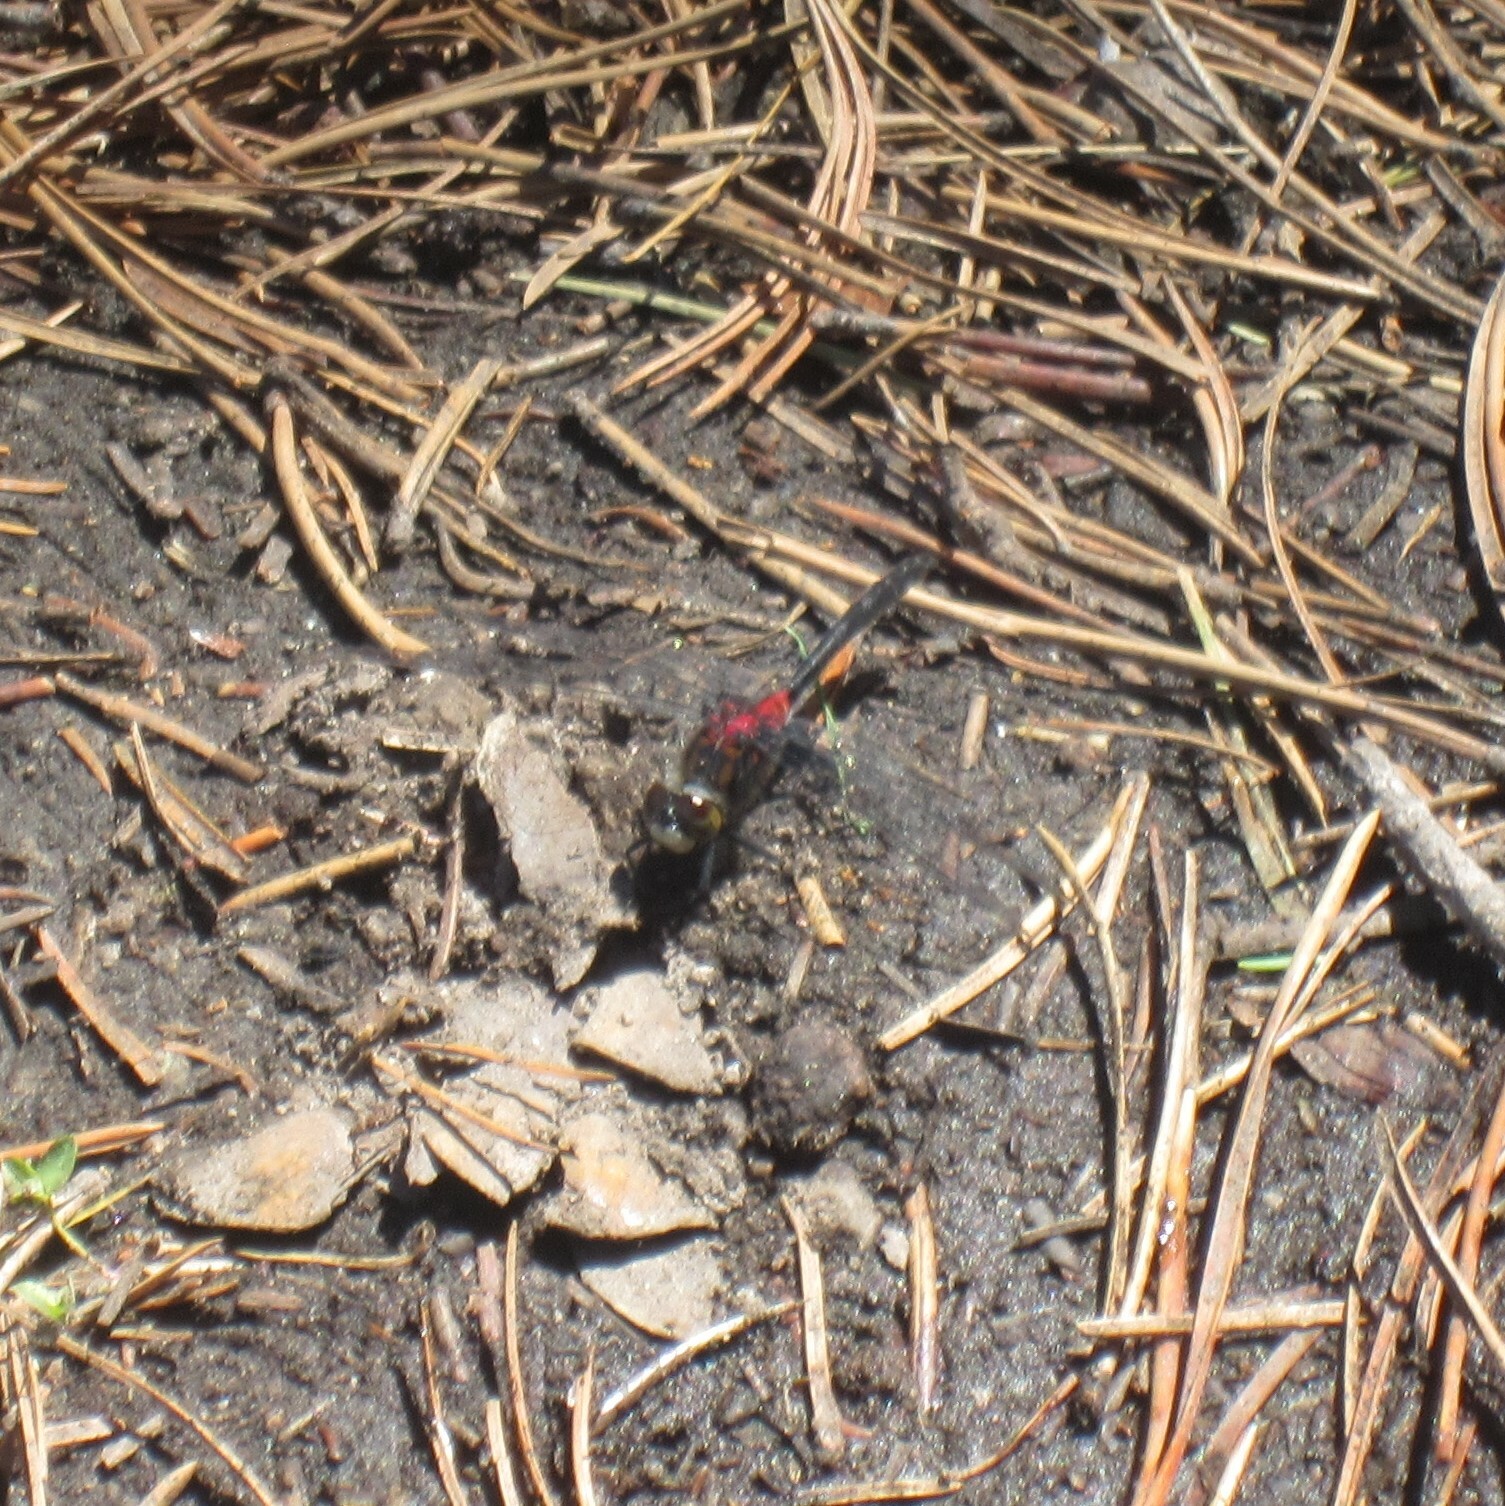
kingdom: Animalia
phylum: Arthropoda
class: Insecta
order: Odonata
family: Libellulidae
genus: Leucorrhinia
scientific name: Leucorrhinia glacialis
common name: Crimson-ringed whiteface
